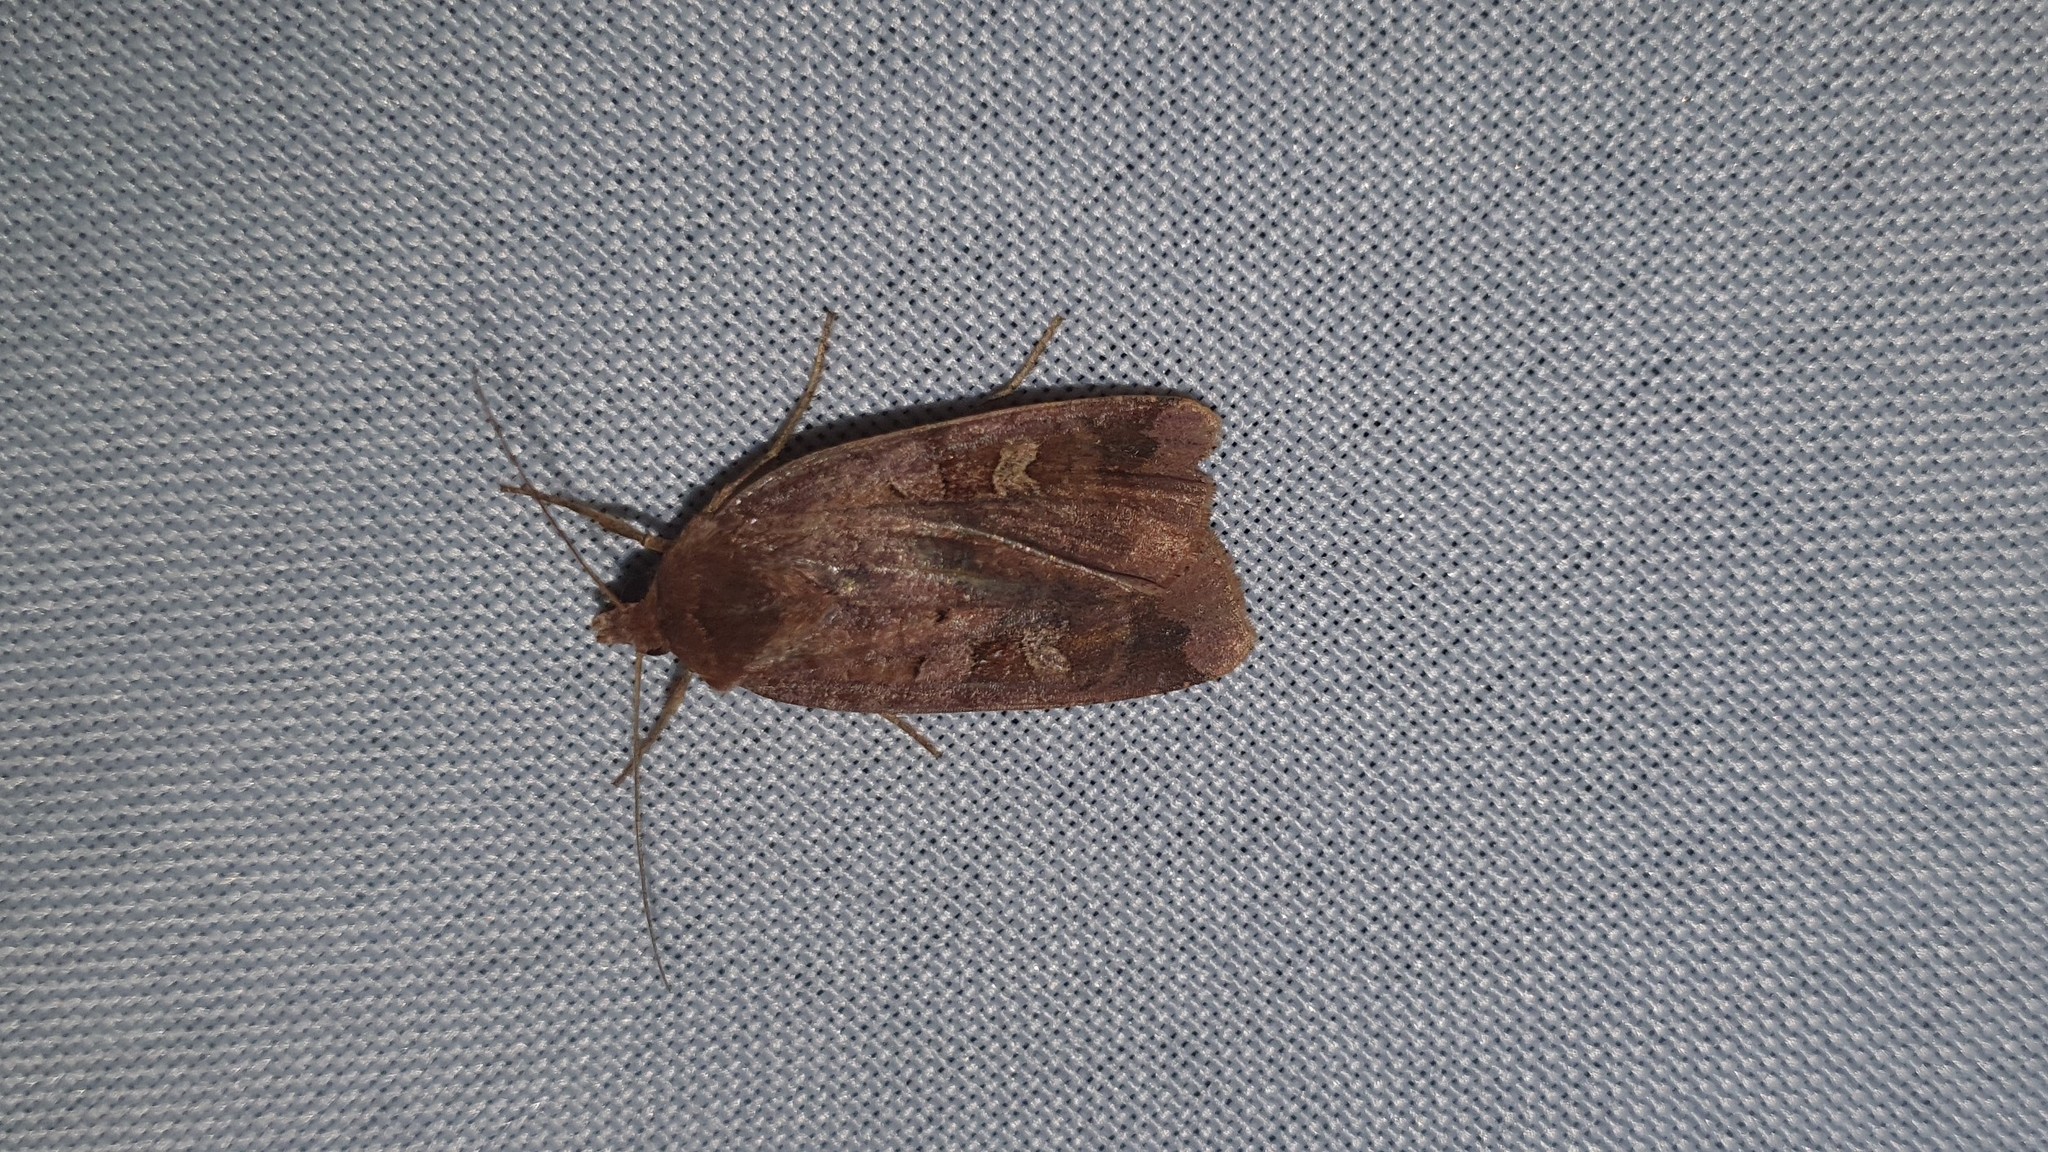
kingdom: Animalia
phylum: Arthropoda
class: Insecta
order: Lepidoptera
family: Noctuidae
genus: Diarsia
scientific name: Diarsia brunnea
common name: Purple clay
